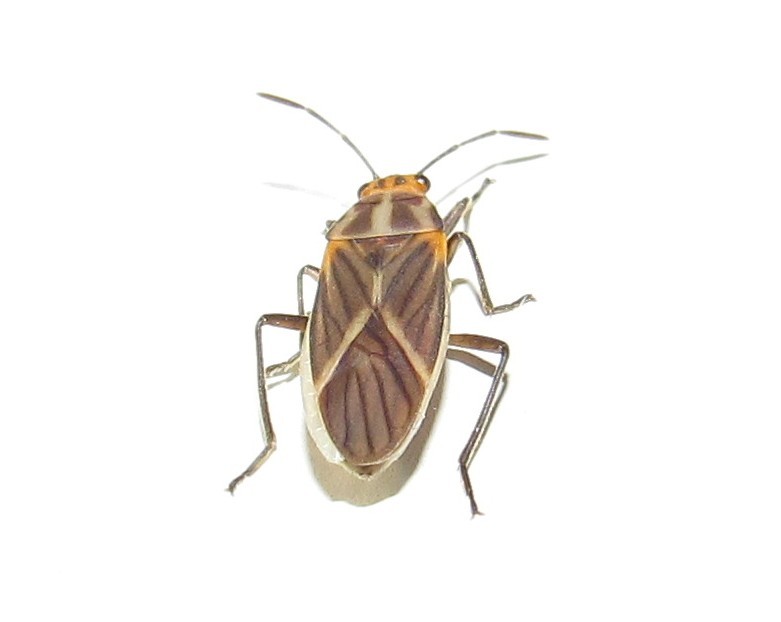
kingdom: Animalia
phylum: Arthropoda
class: Insecta
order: Hemiptera
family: Lygaeidae
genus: Torvochrimnus
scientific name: Torvochrimnus poeyi
